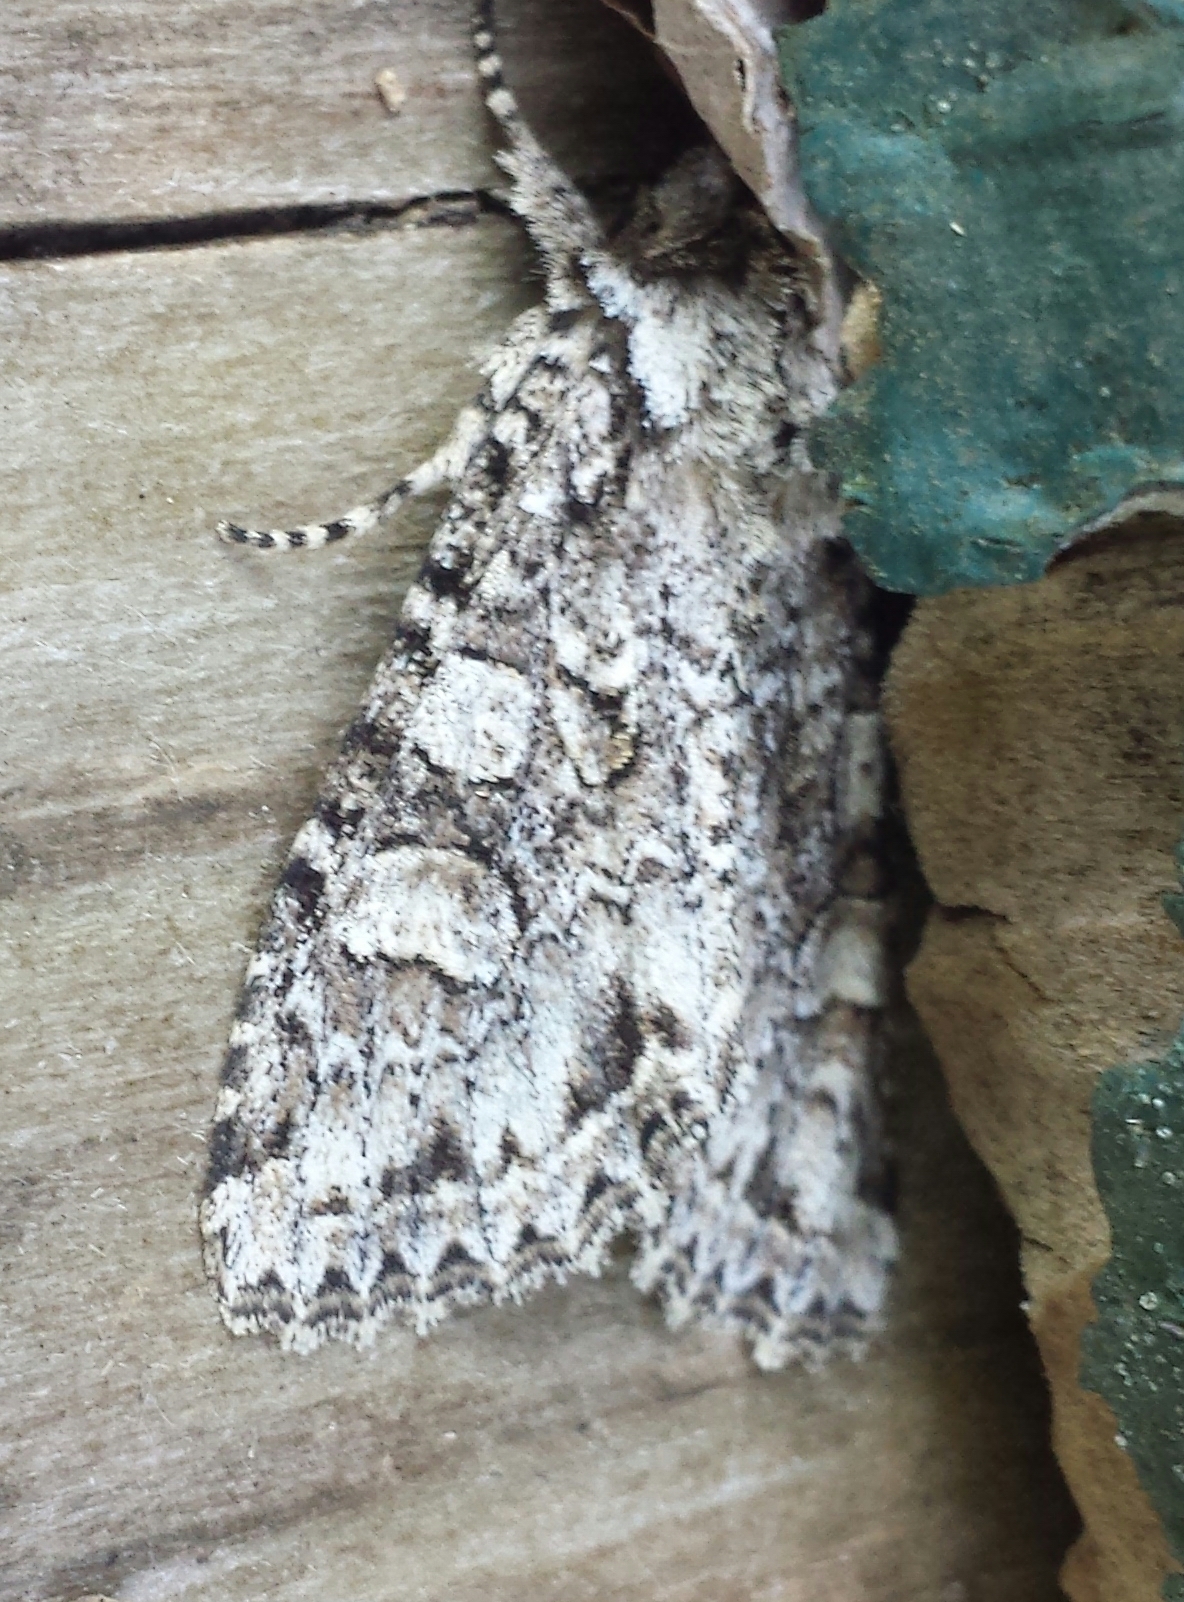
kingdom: Animalia
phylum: Arthropoda
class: Insecta
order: Lepidoptera
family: Noctuidae
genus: Polia
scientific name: Polia nimbosa
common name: Stormy arches
